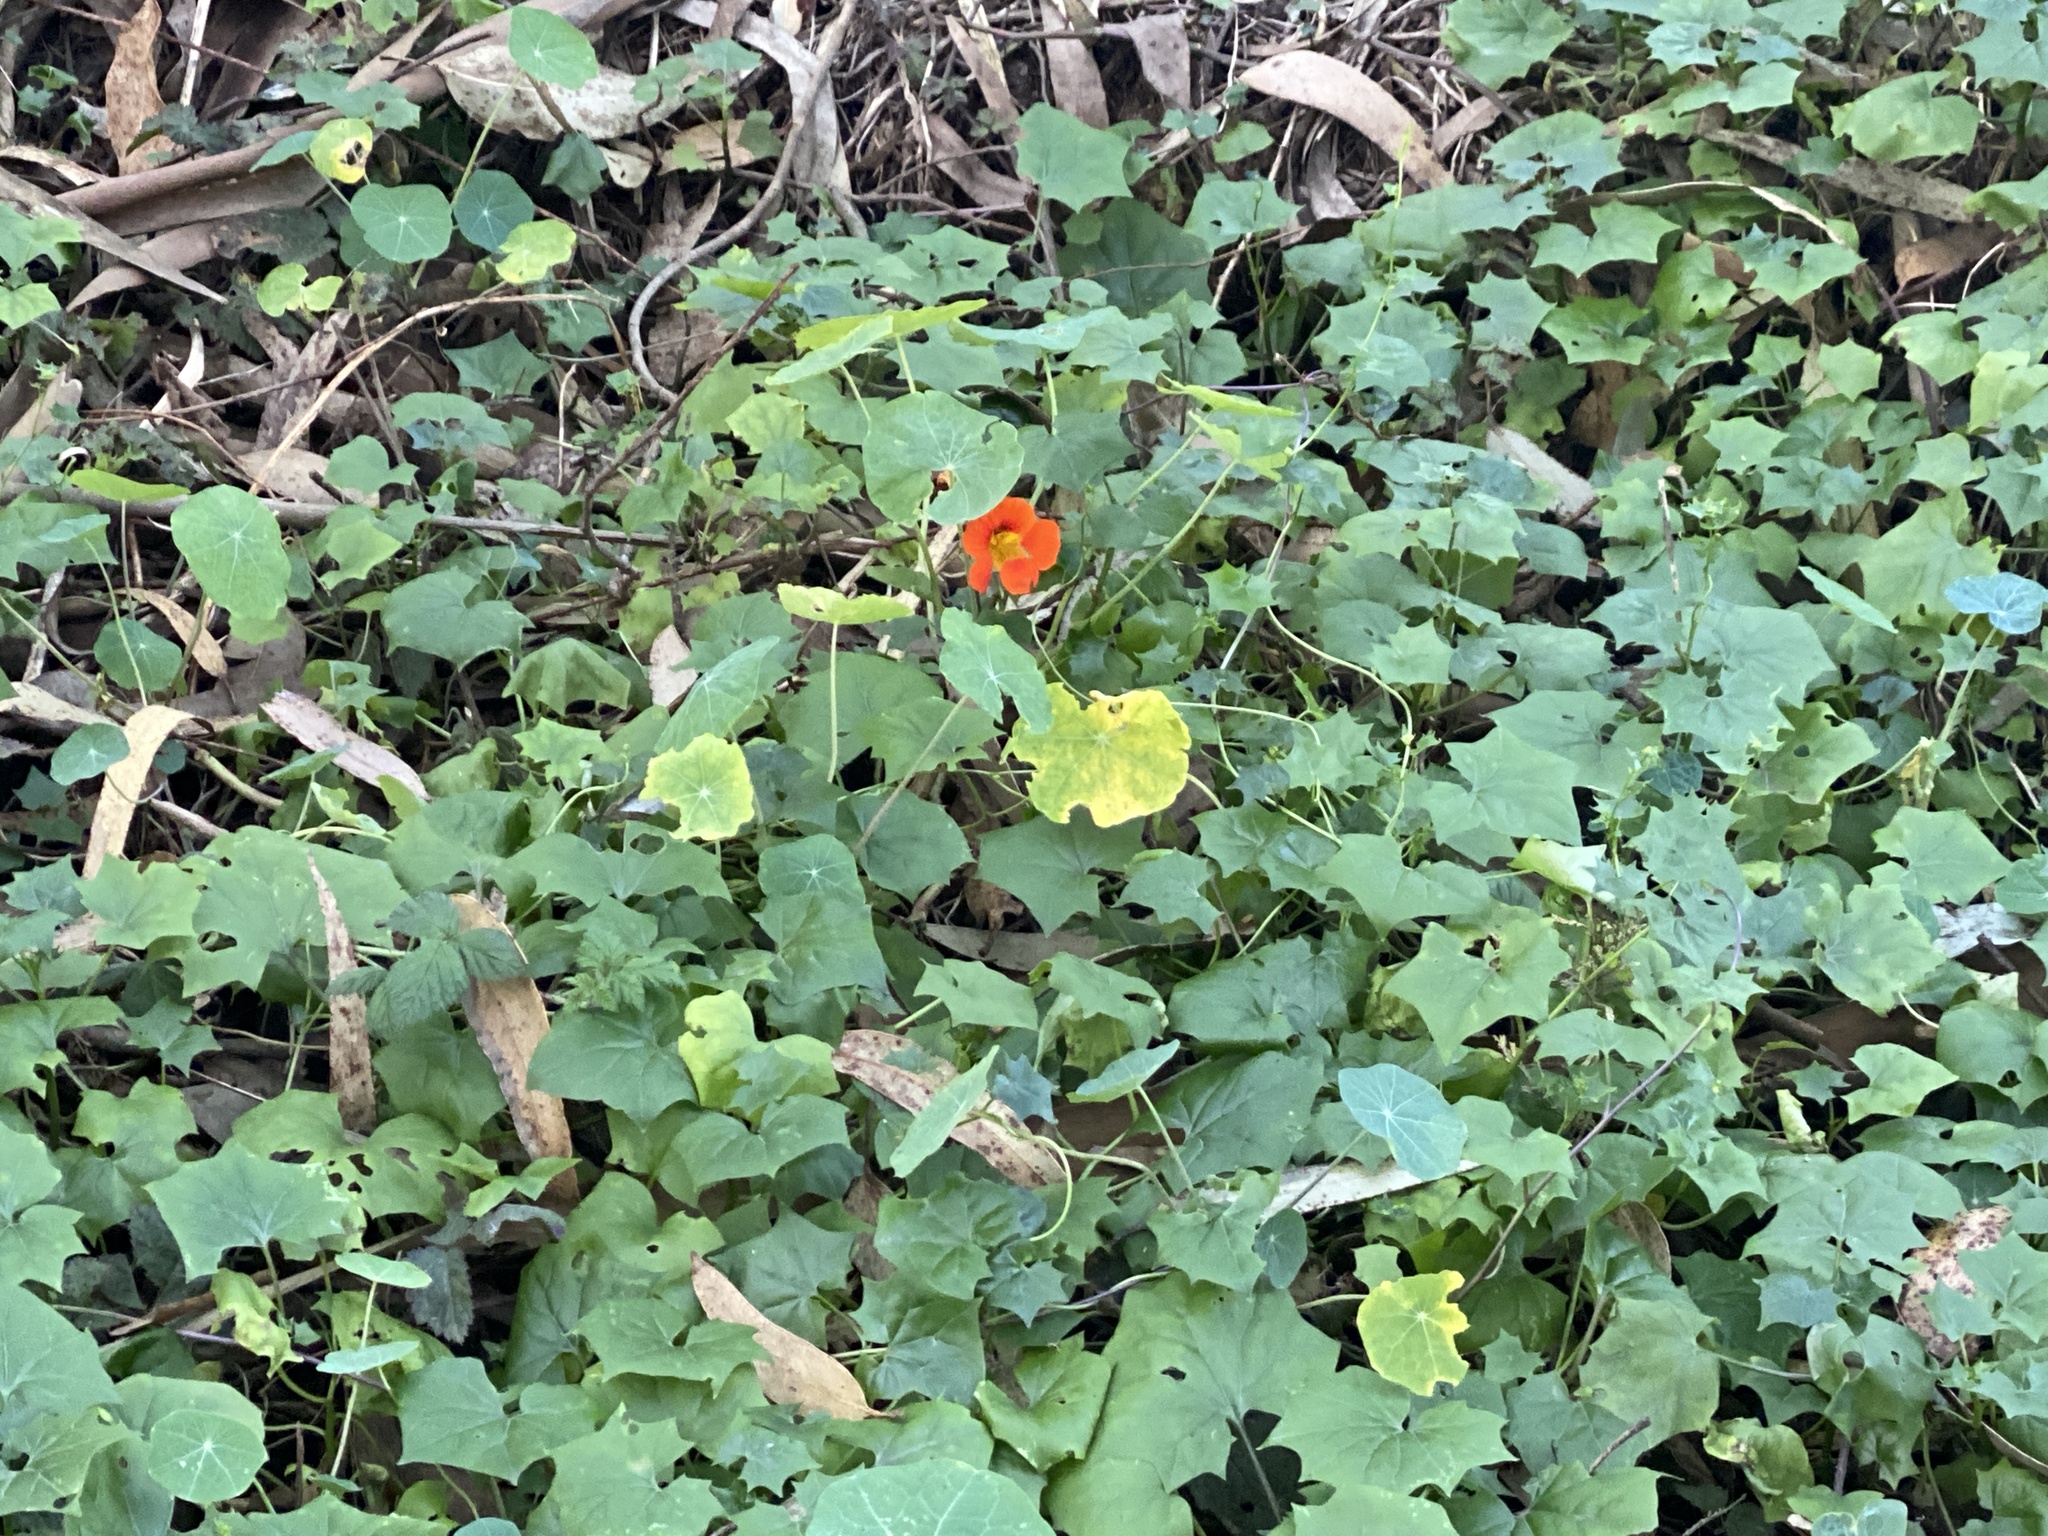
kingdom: Plantae
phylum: Tracheophyta
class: Magnoliopsida
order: Brassicales
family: Tropaeolaceae
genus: Tropaeolum
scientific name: Tropaeolum majus
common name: Nasturtium
